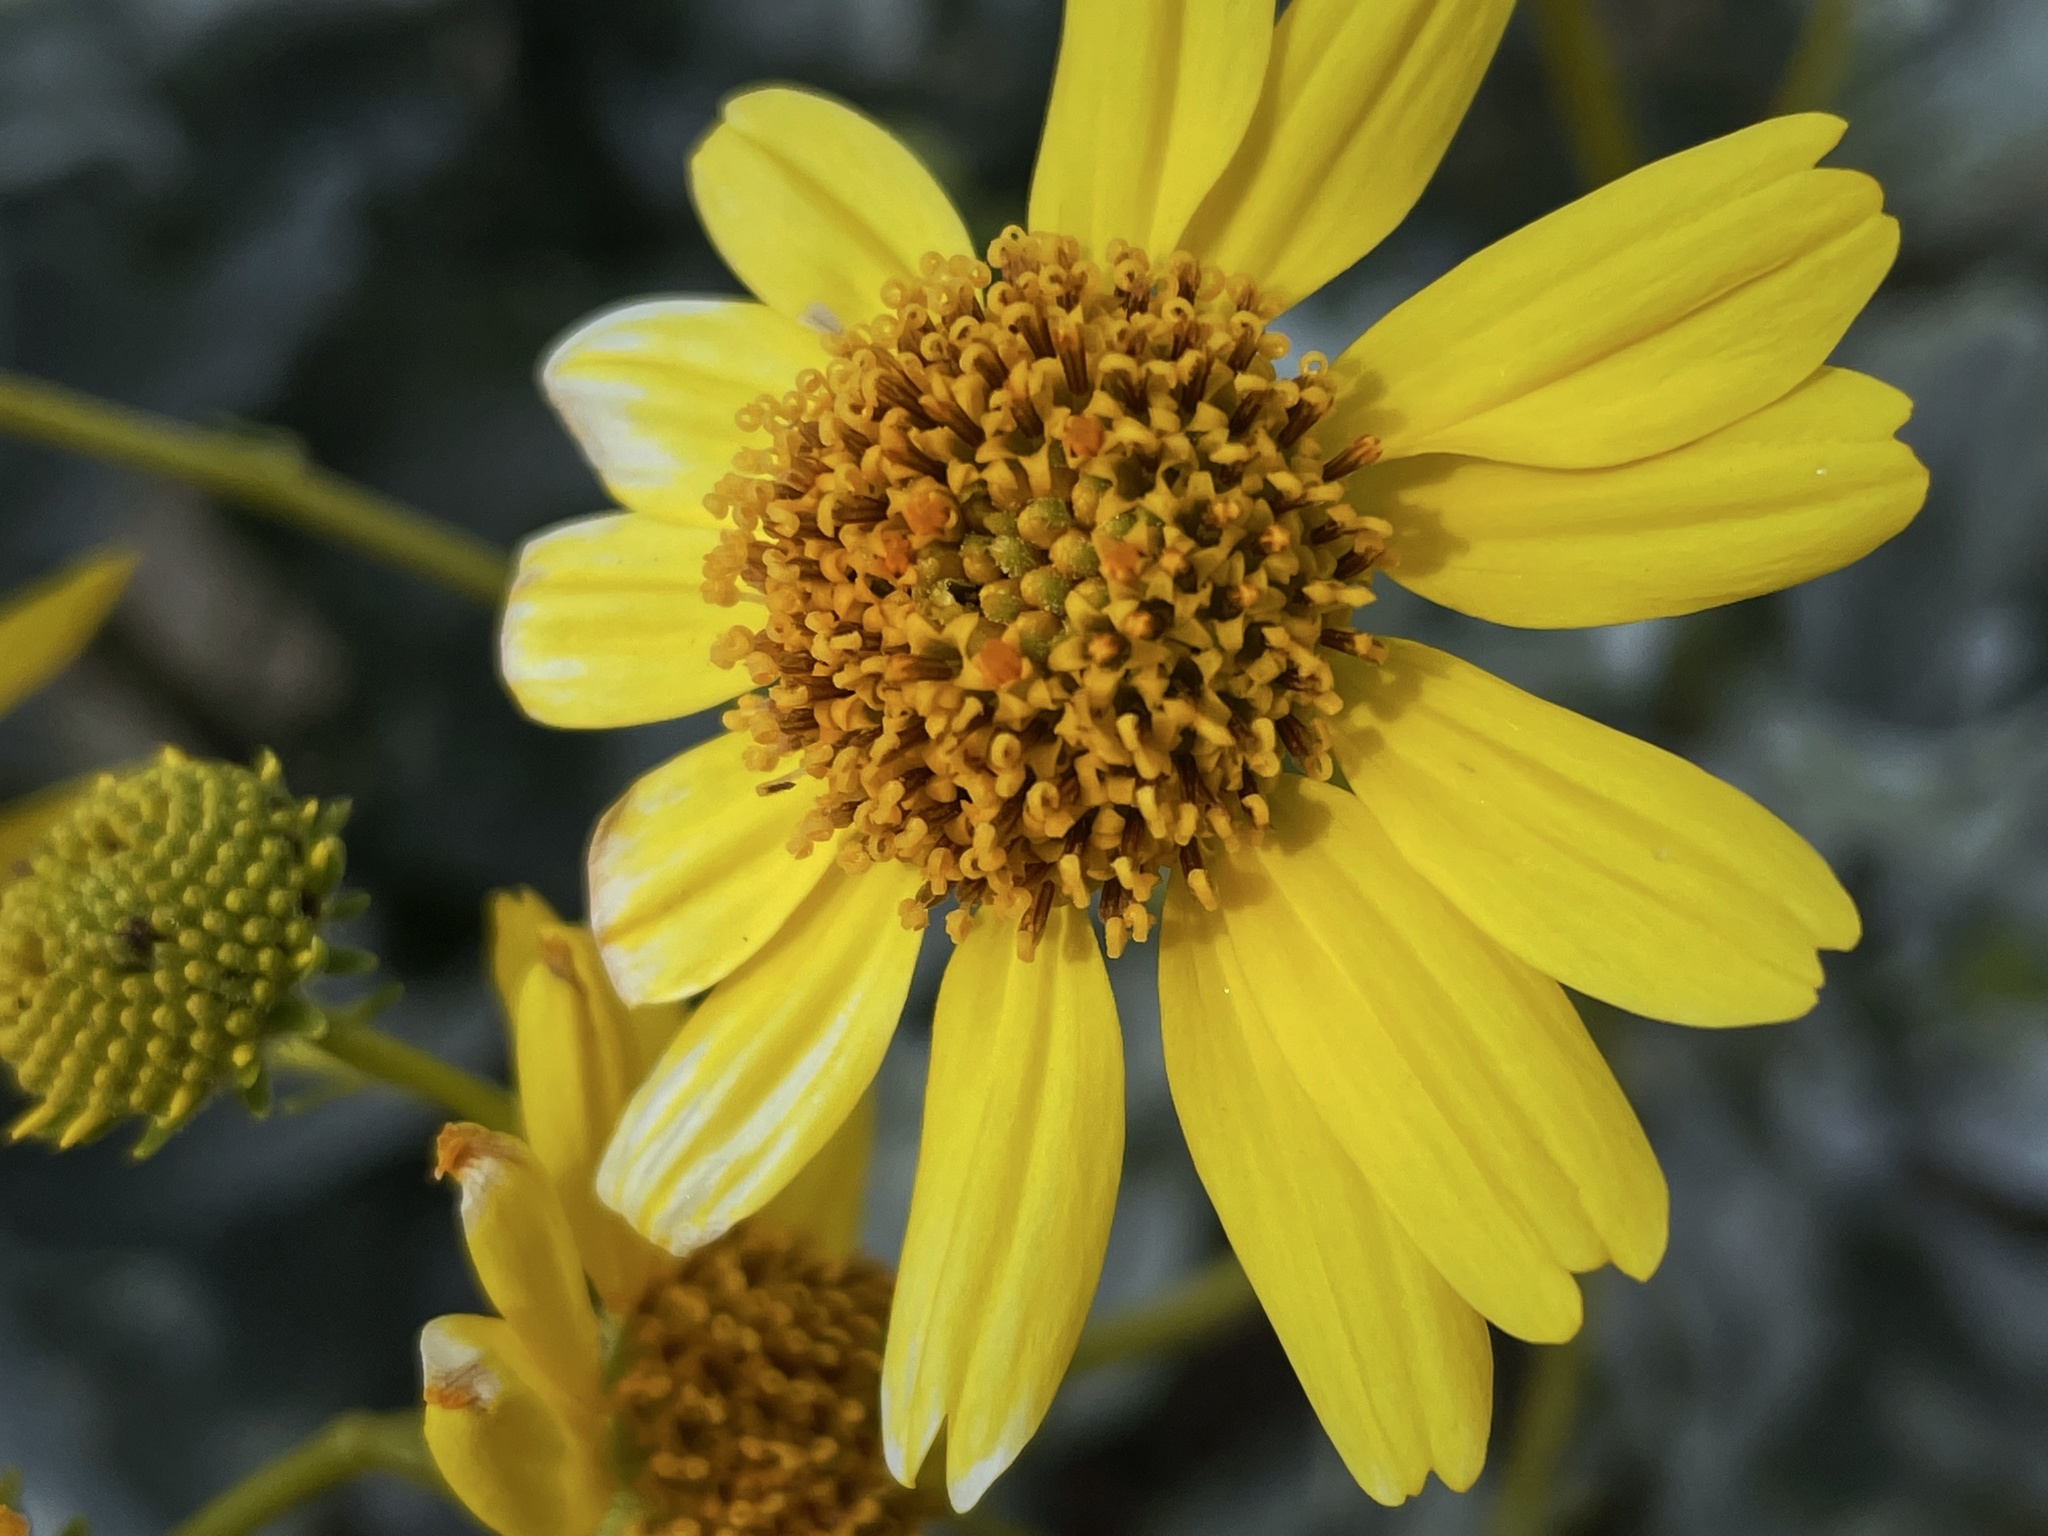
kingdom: Plantae
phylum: Tracheophyta
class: Magnoliopsida
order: Asterales
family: Asteraceae
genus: Encelia
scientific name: Encelia farinosa
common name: Brittlebush
